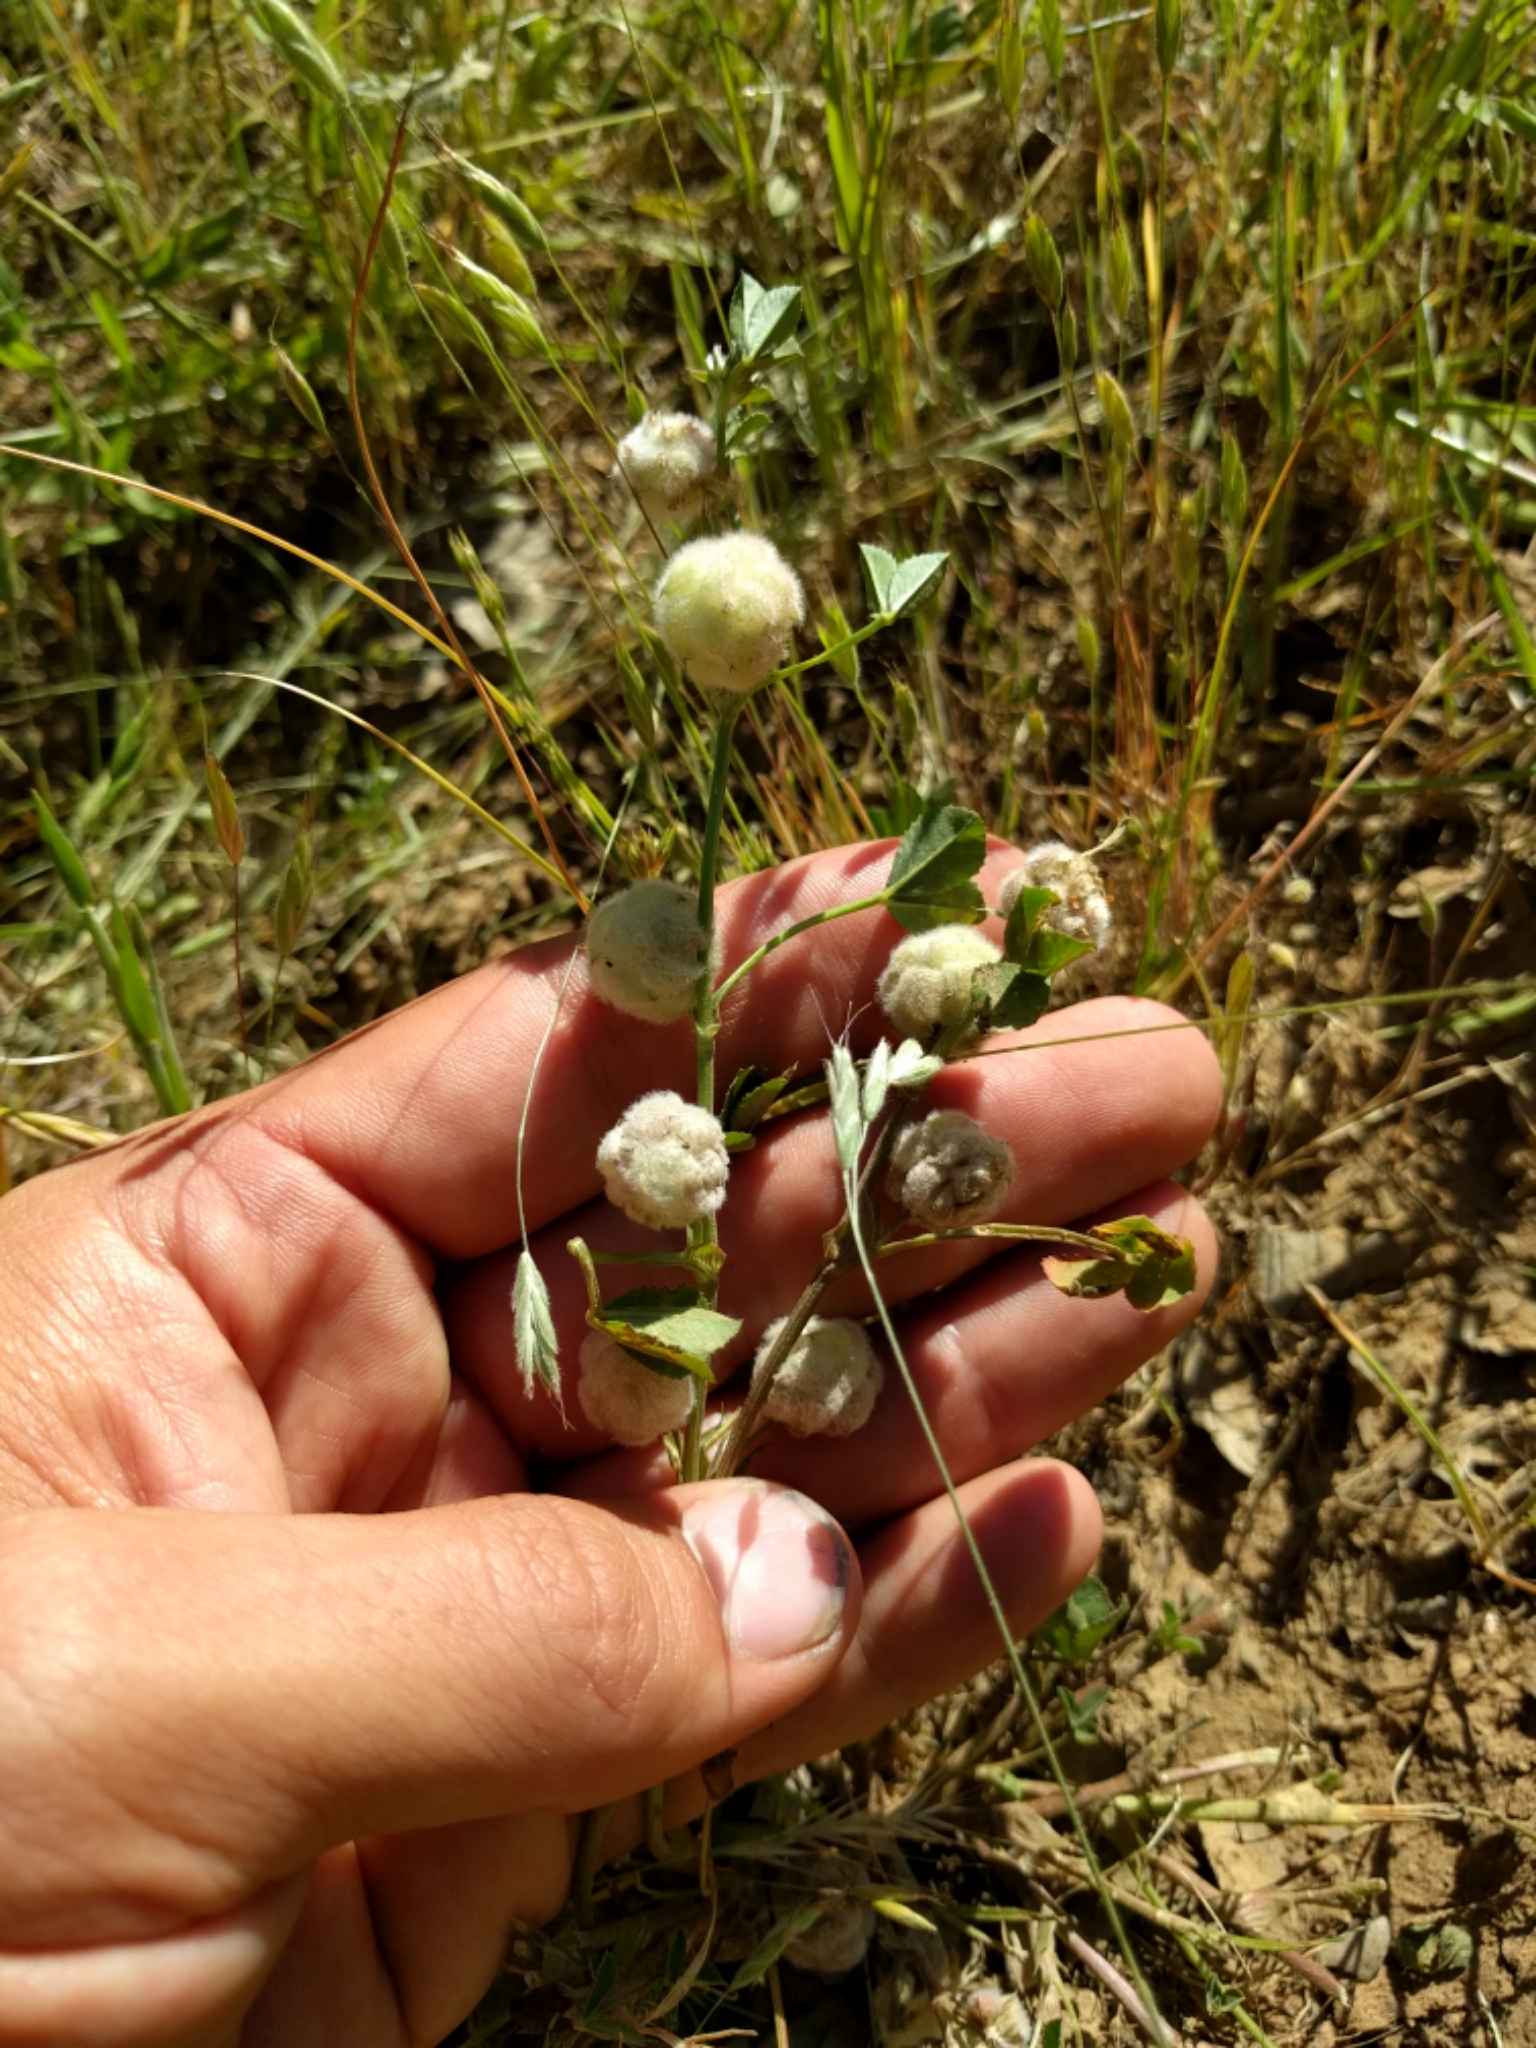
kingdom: Plantae
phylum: Tracheophyta
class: Magnoliopsida
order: Fabales
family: Fabaceae
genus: Trifolium
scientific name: Trifolium tomentosum
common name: Woolly clover
